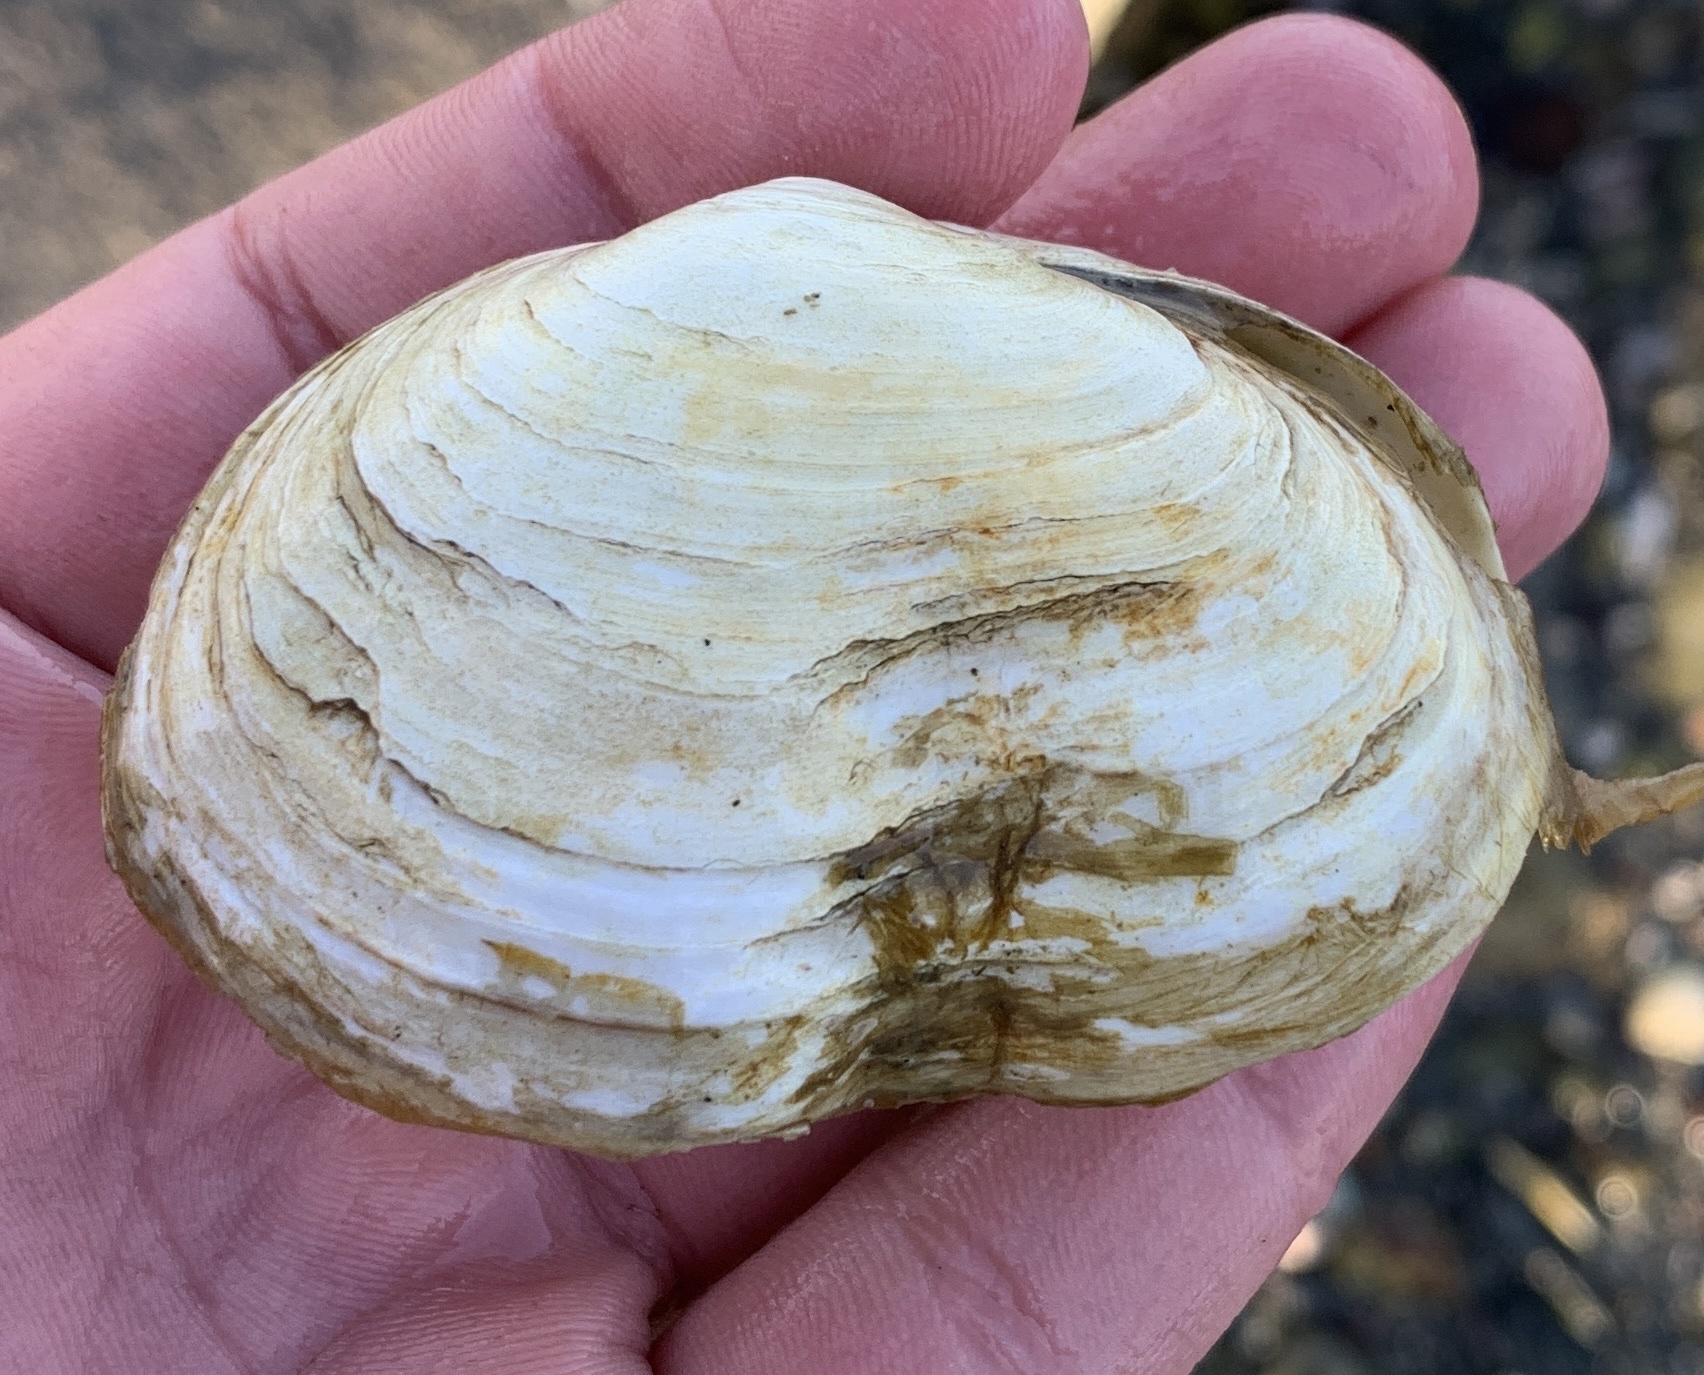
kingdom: Animalia
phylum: Mollusca
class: Bivalvia
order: Myida
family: Myidae
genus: Mya
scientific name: Mya arenaria
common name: Soft-shelled clam
